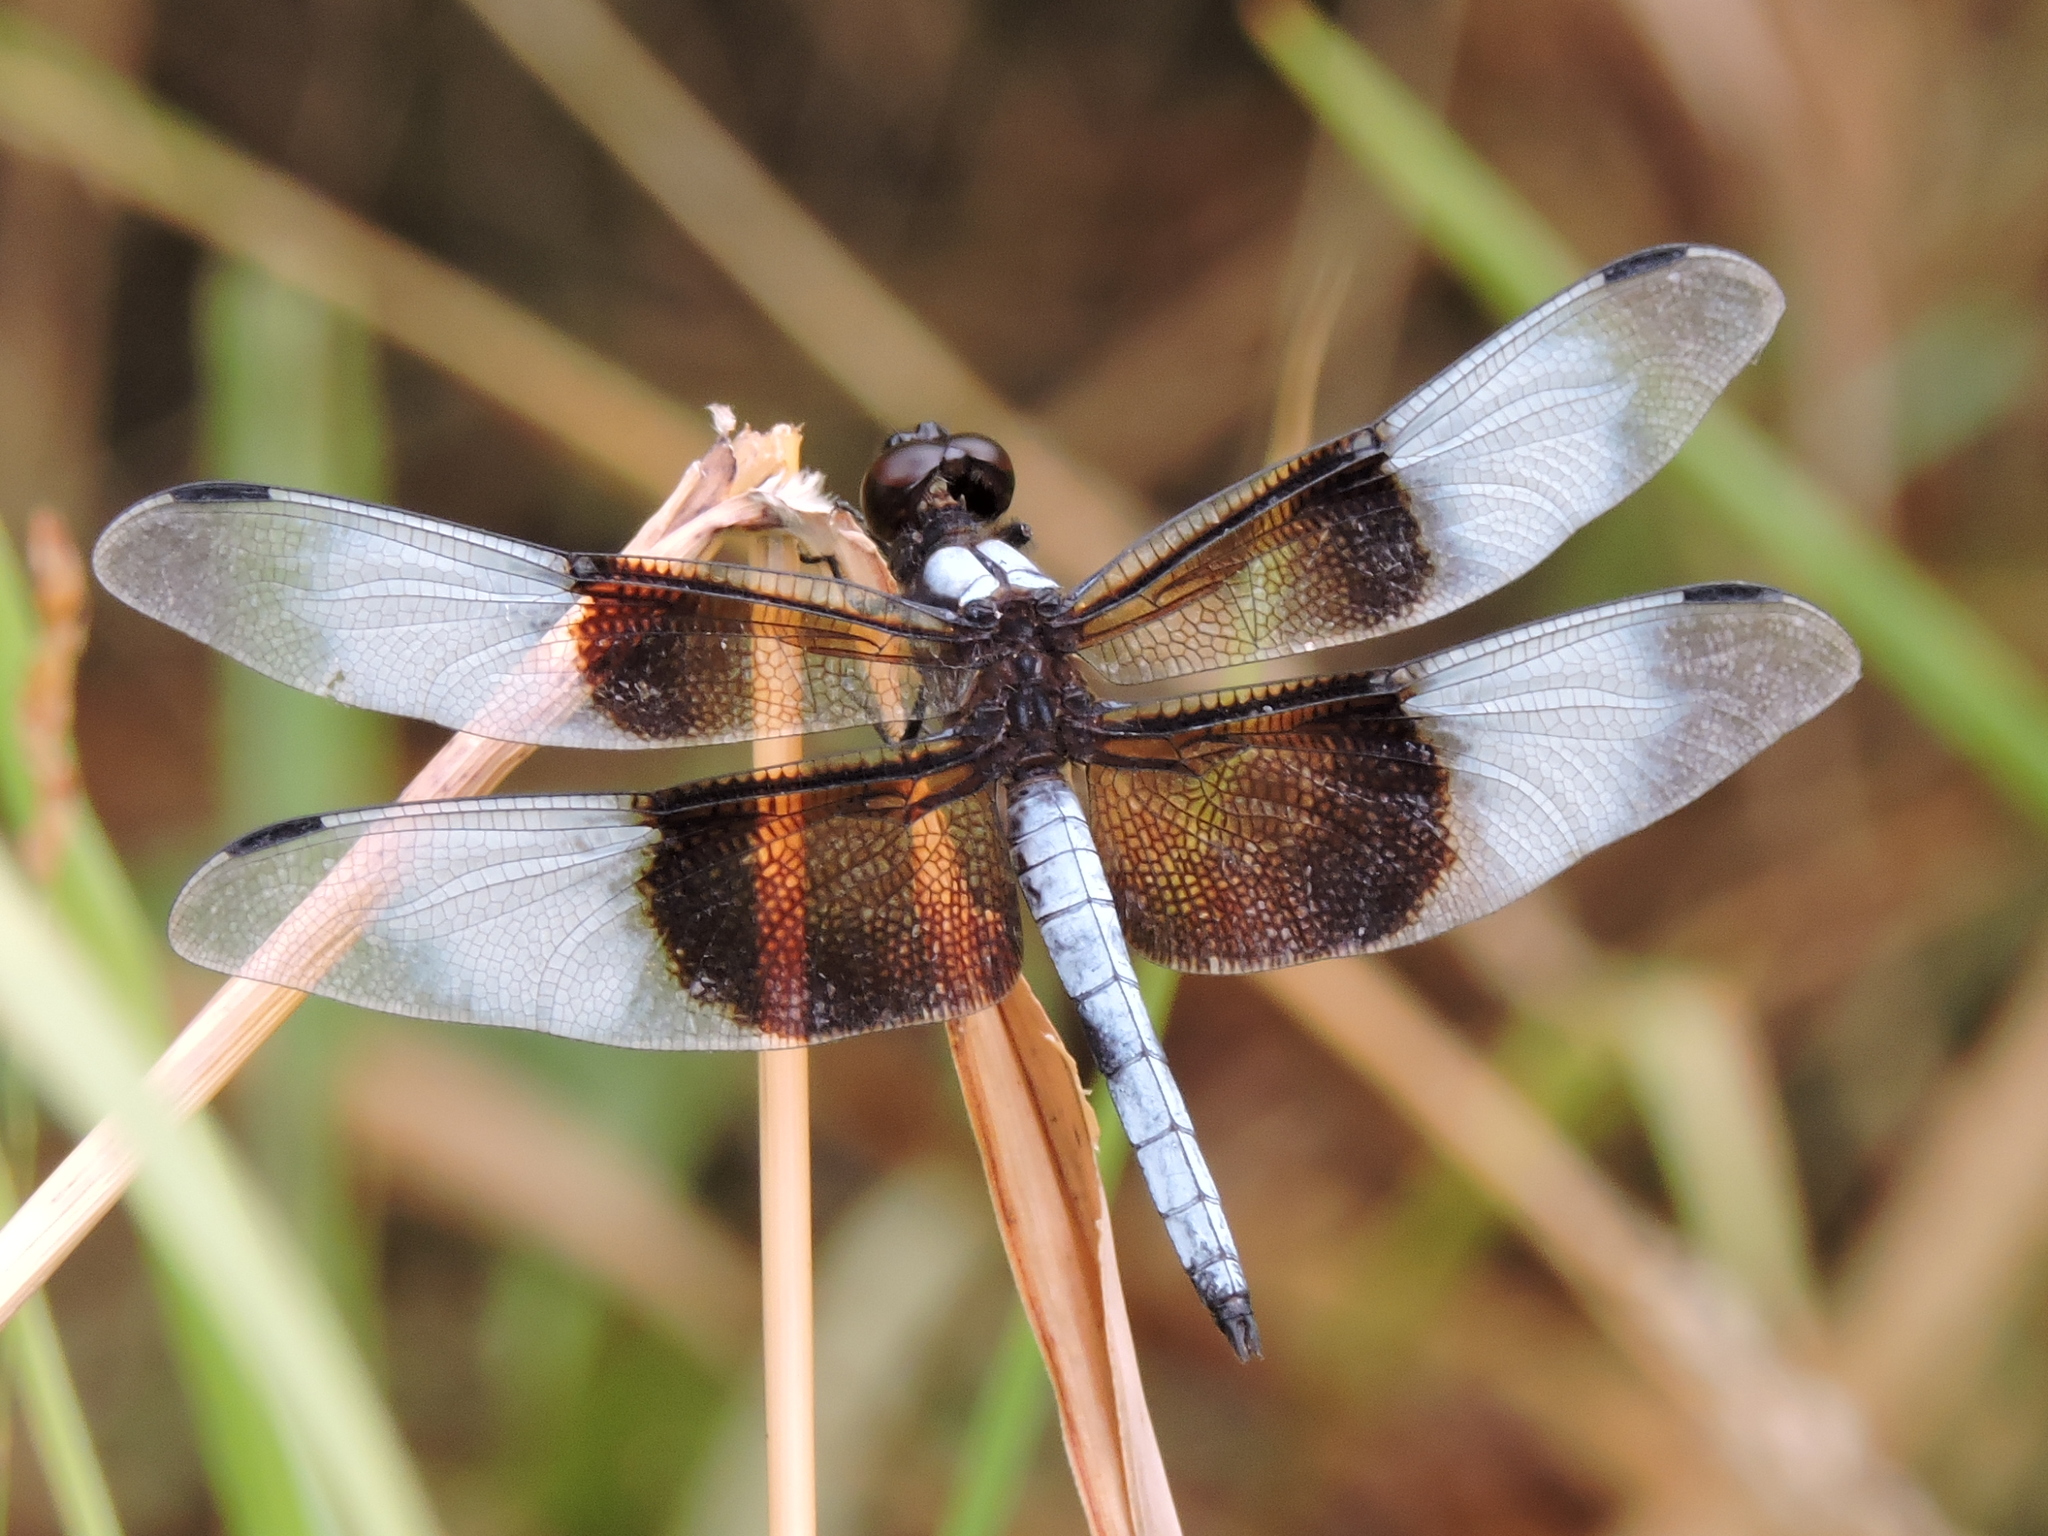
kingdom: Animalia
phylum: Arthropoda
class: Insecta
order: Odonata
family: Libellulidae
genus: Libellula
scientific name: Libellula luctuosa
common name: Widow skimmer
